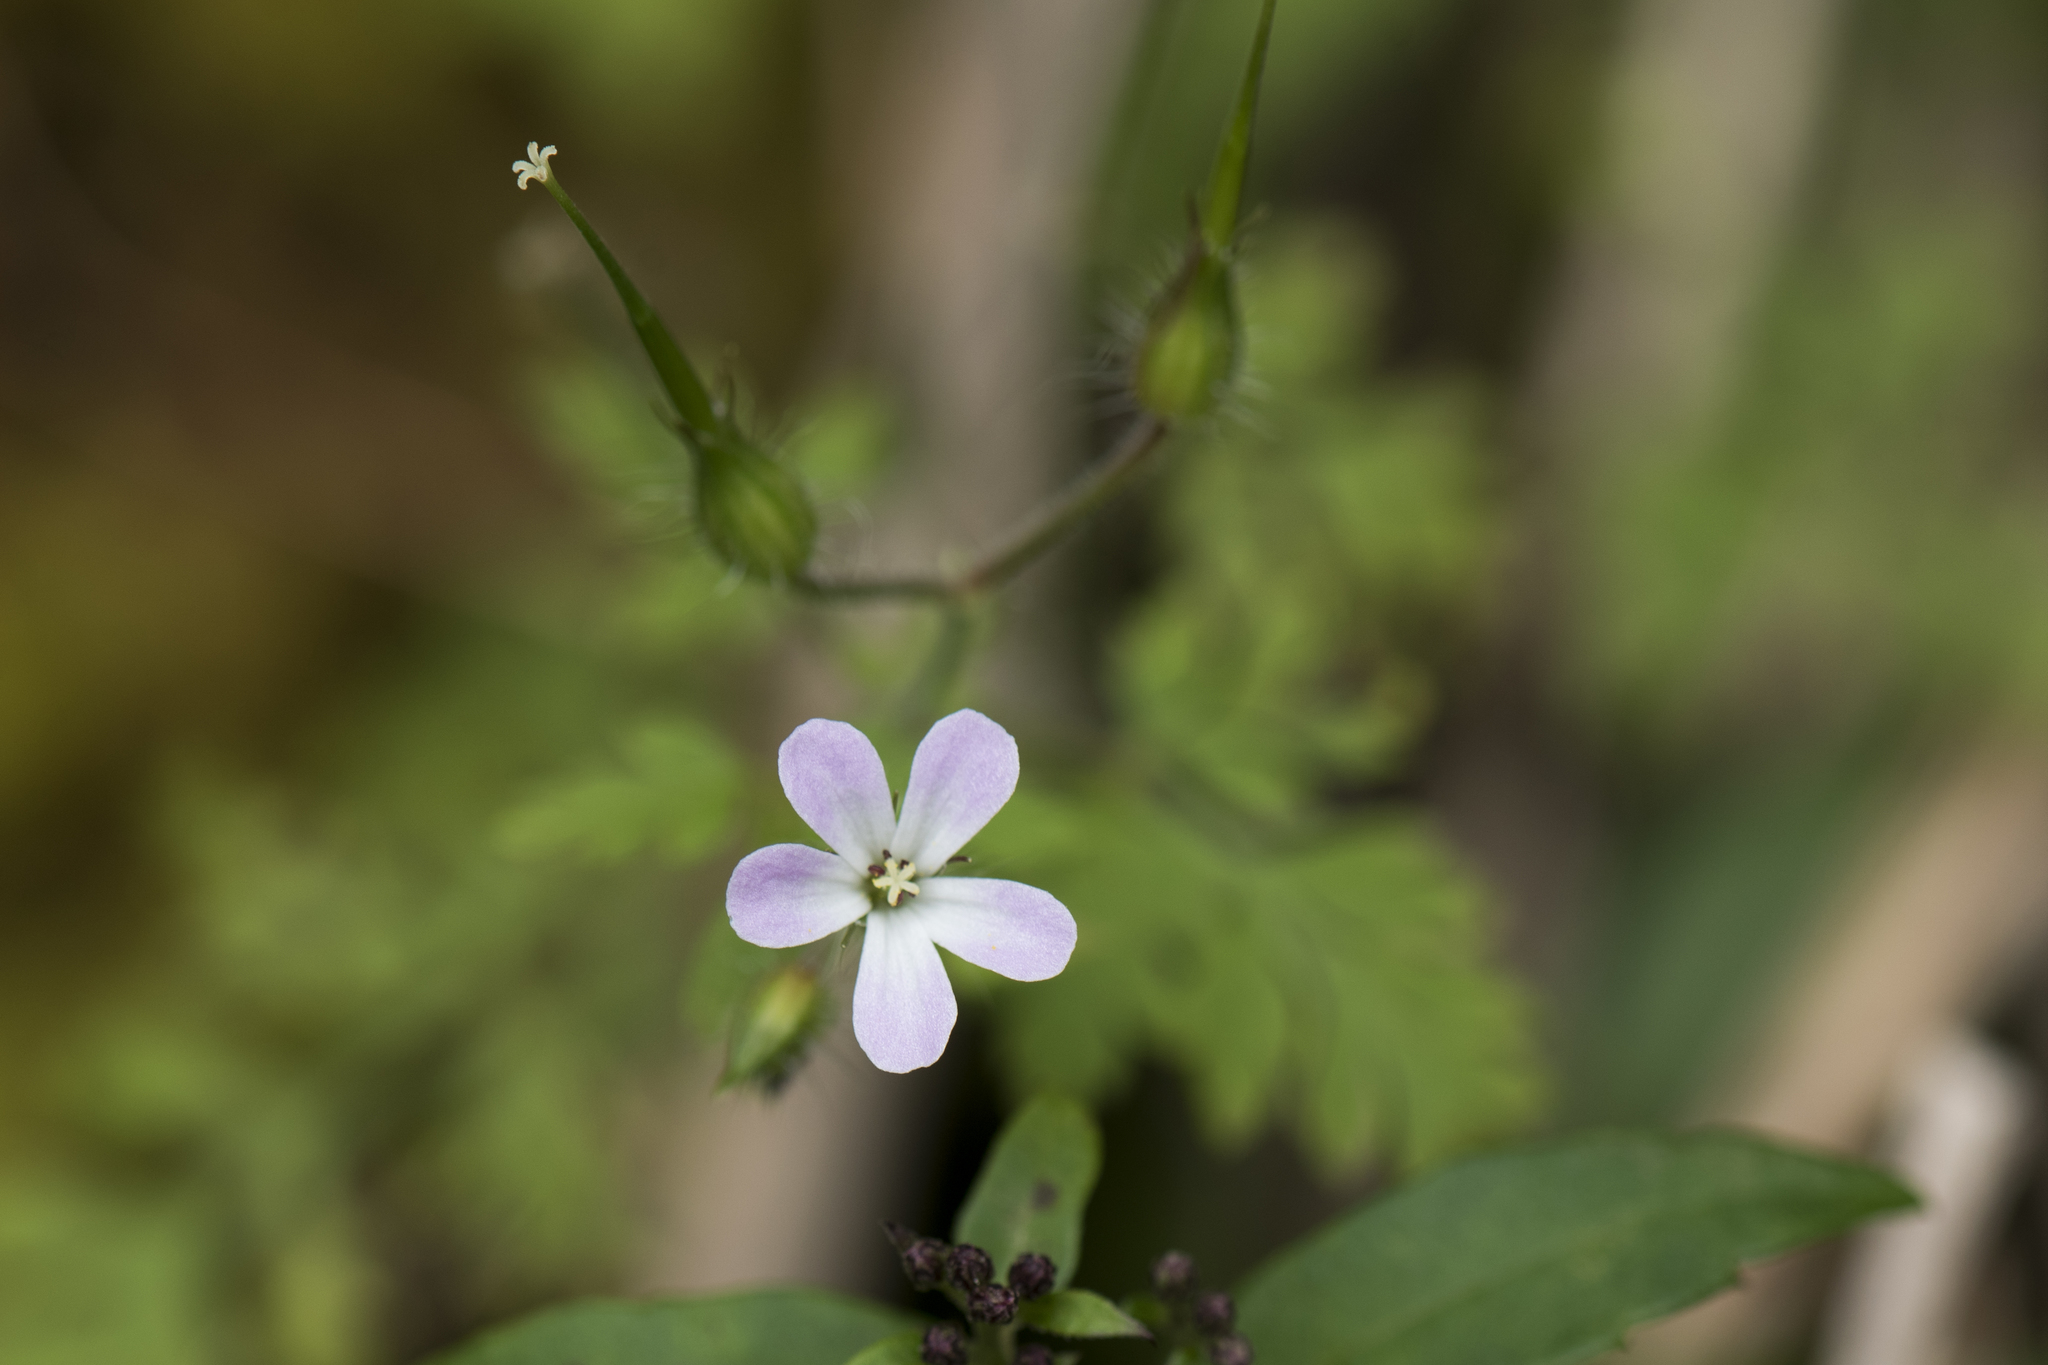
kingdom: Plantae
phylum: Tracheophyta
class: Magnoliopsida
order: Geraniales
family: Geraniaceae
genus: Geranium
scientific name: Geranium robertianum
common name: Herb-robert
